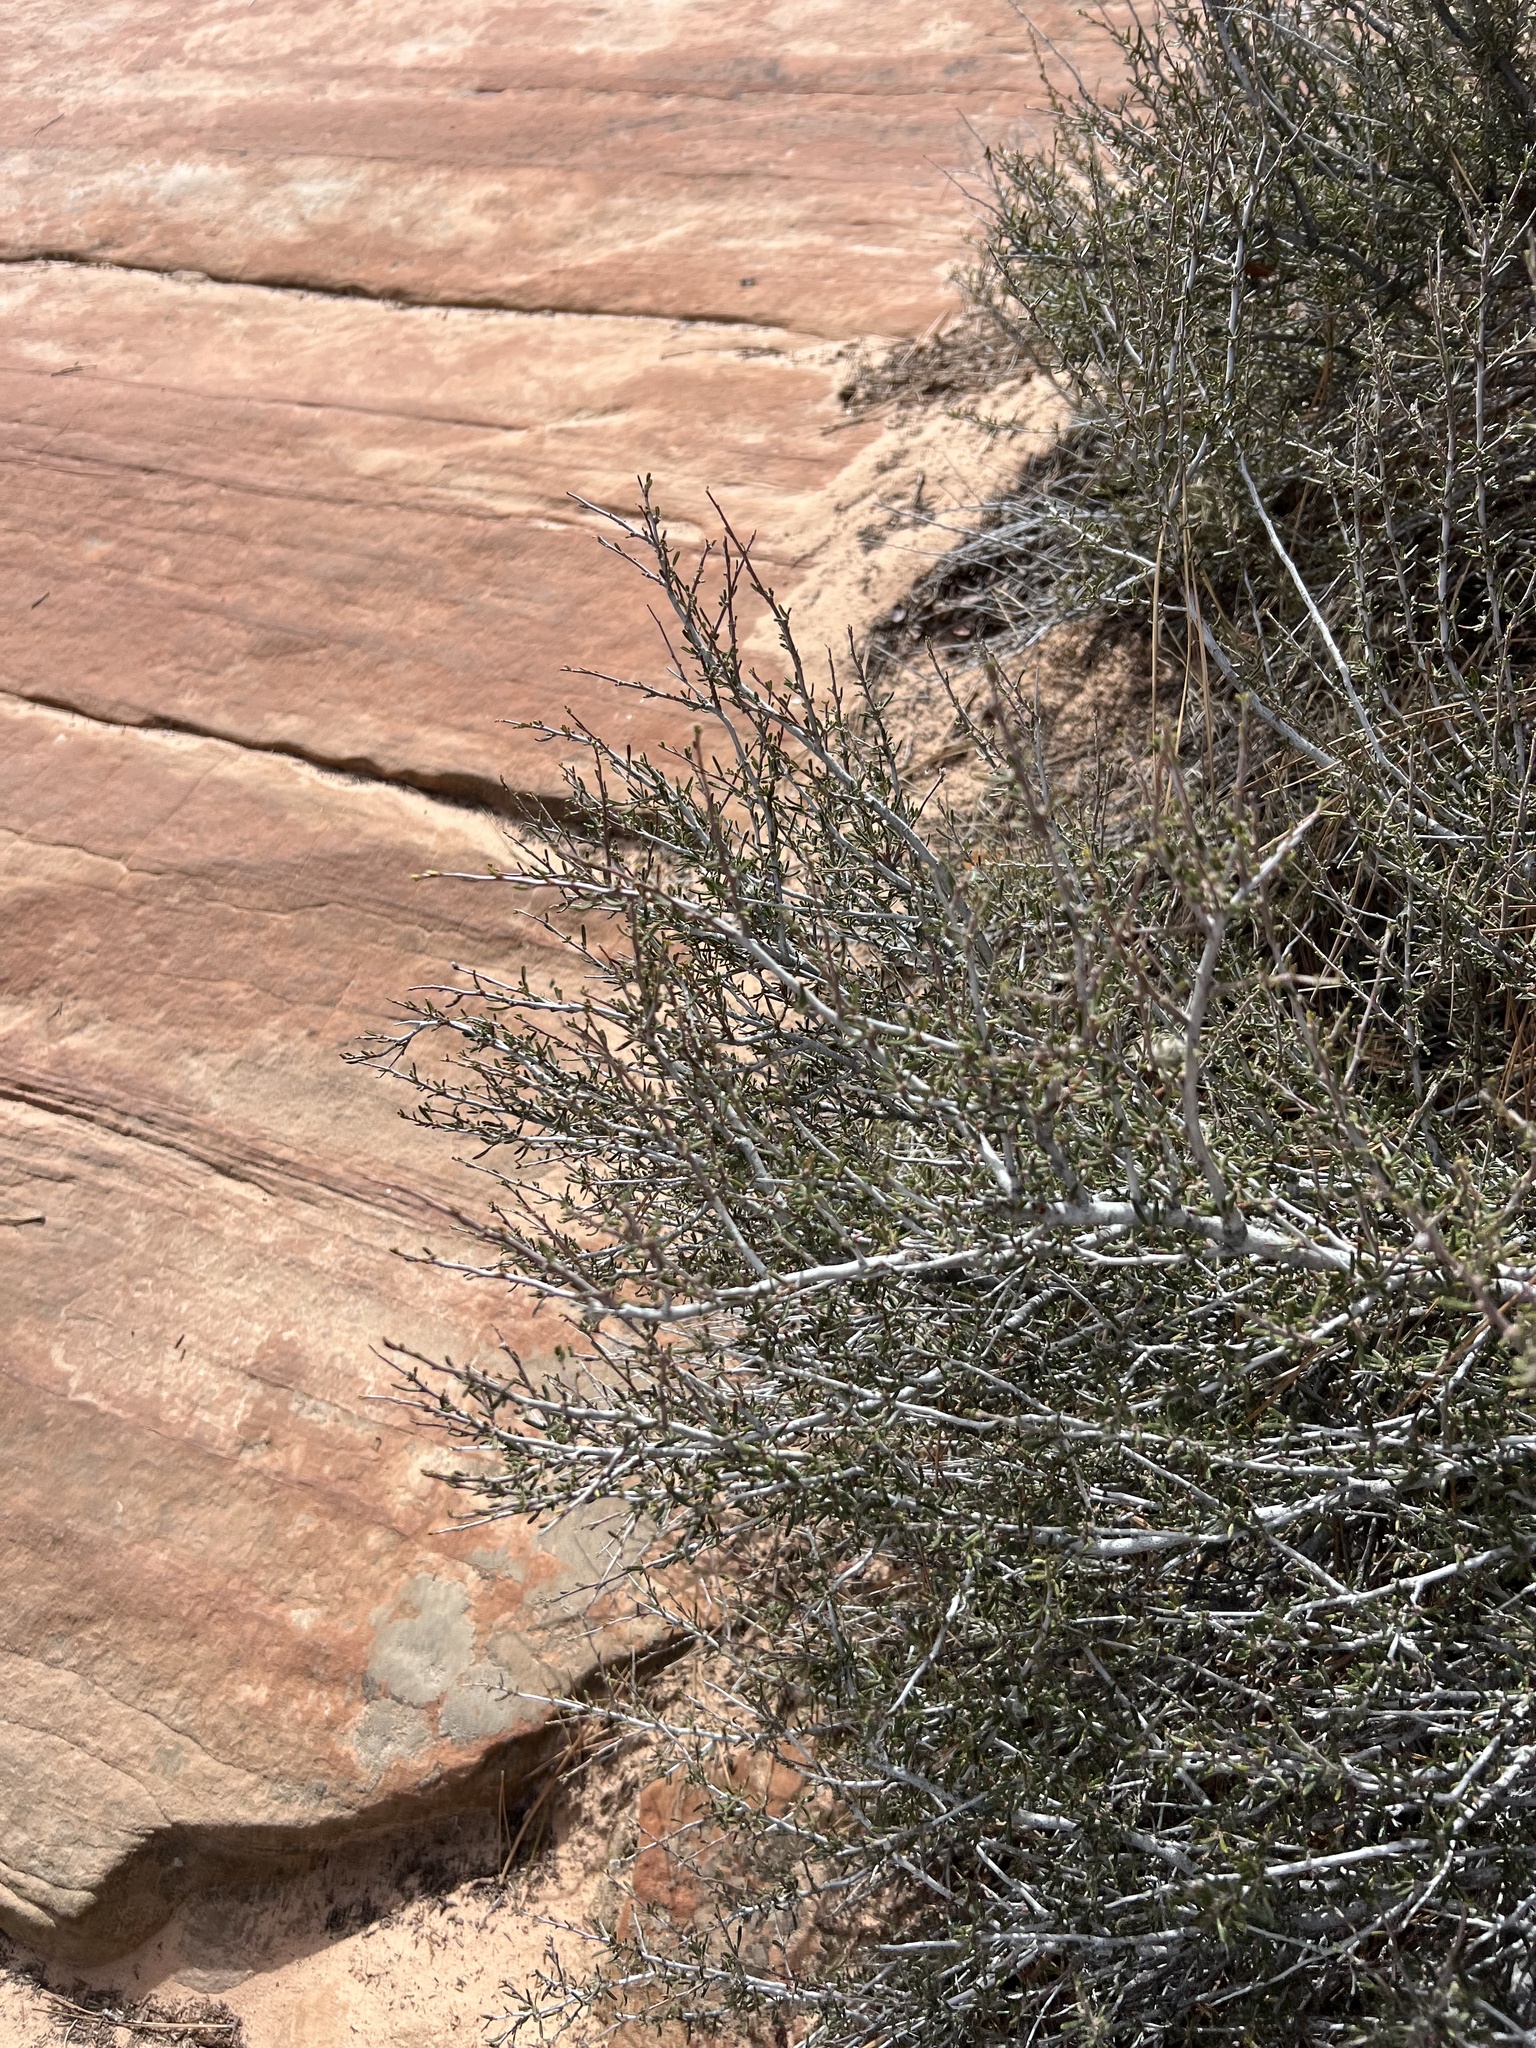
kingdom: Plantae
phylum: Tracheophyta
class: Magnoliopsida
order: Rosales
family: Rosaceae
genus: Cercocarpus
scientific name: Cercocarpus intricatus
